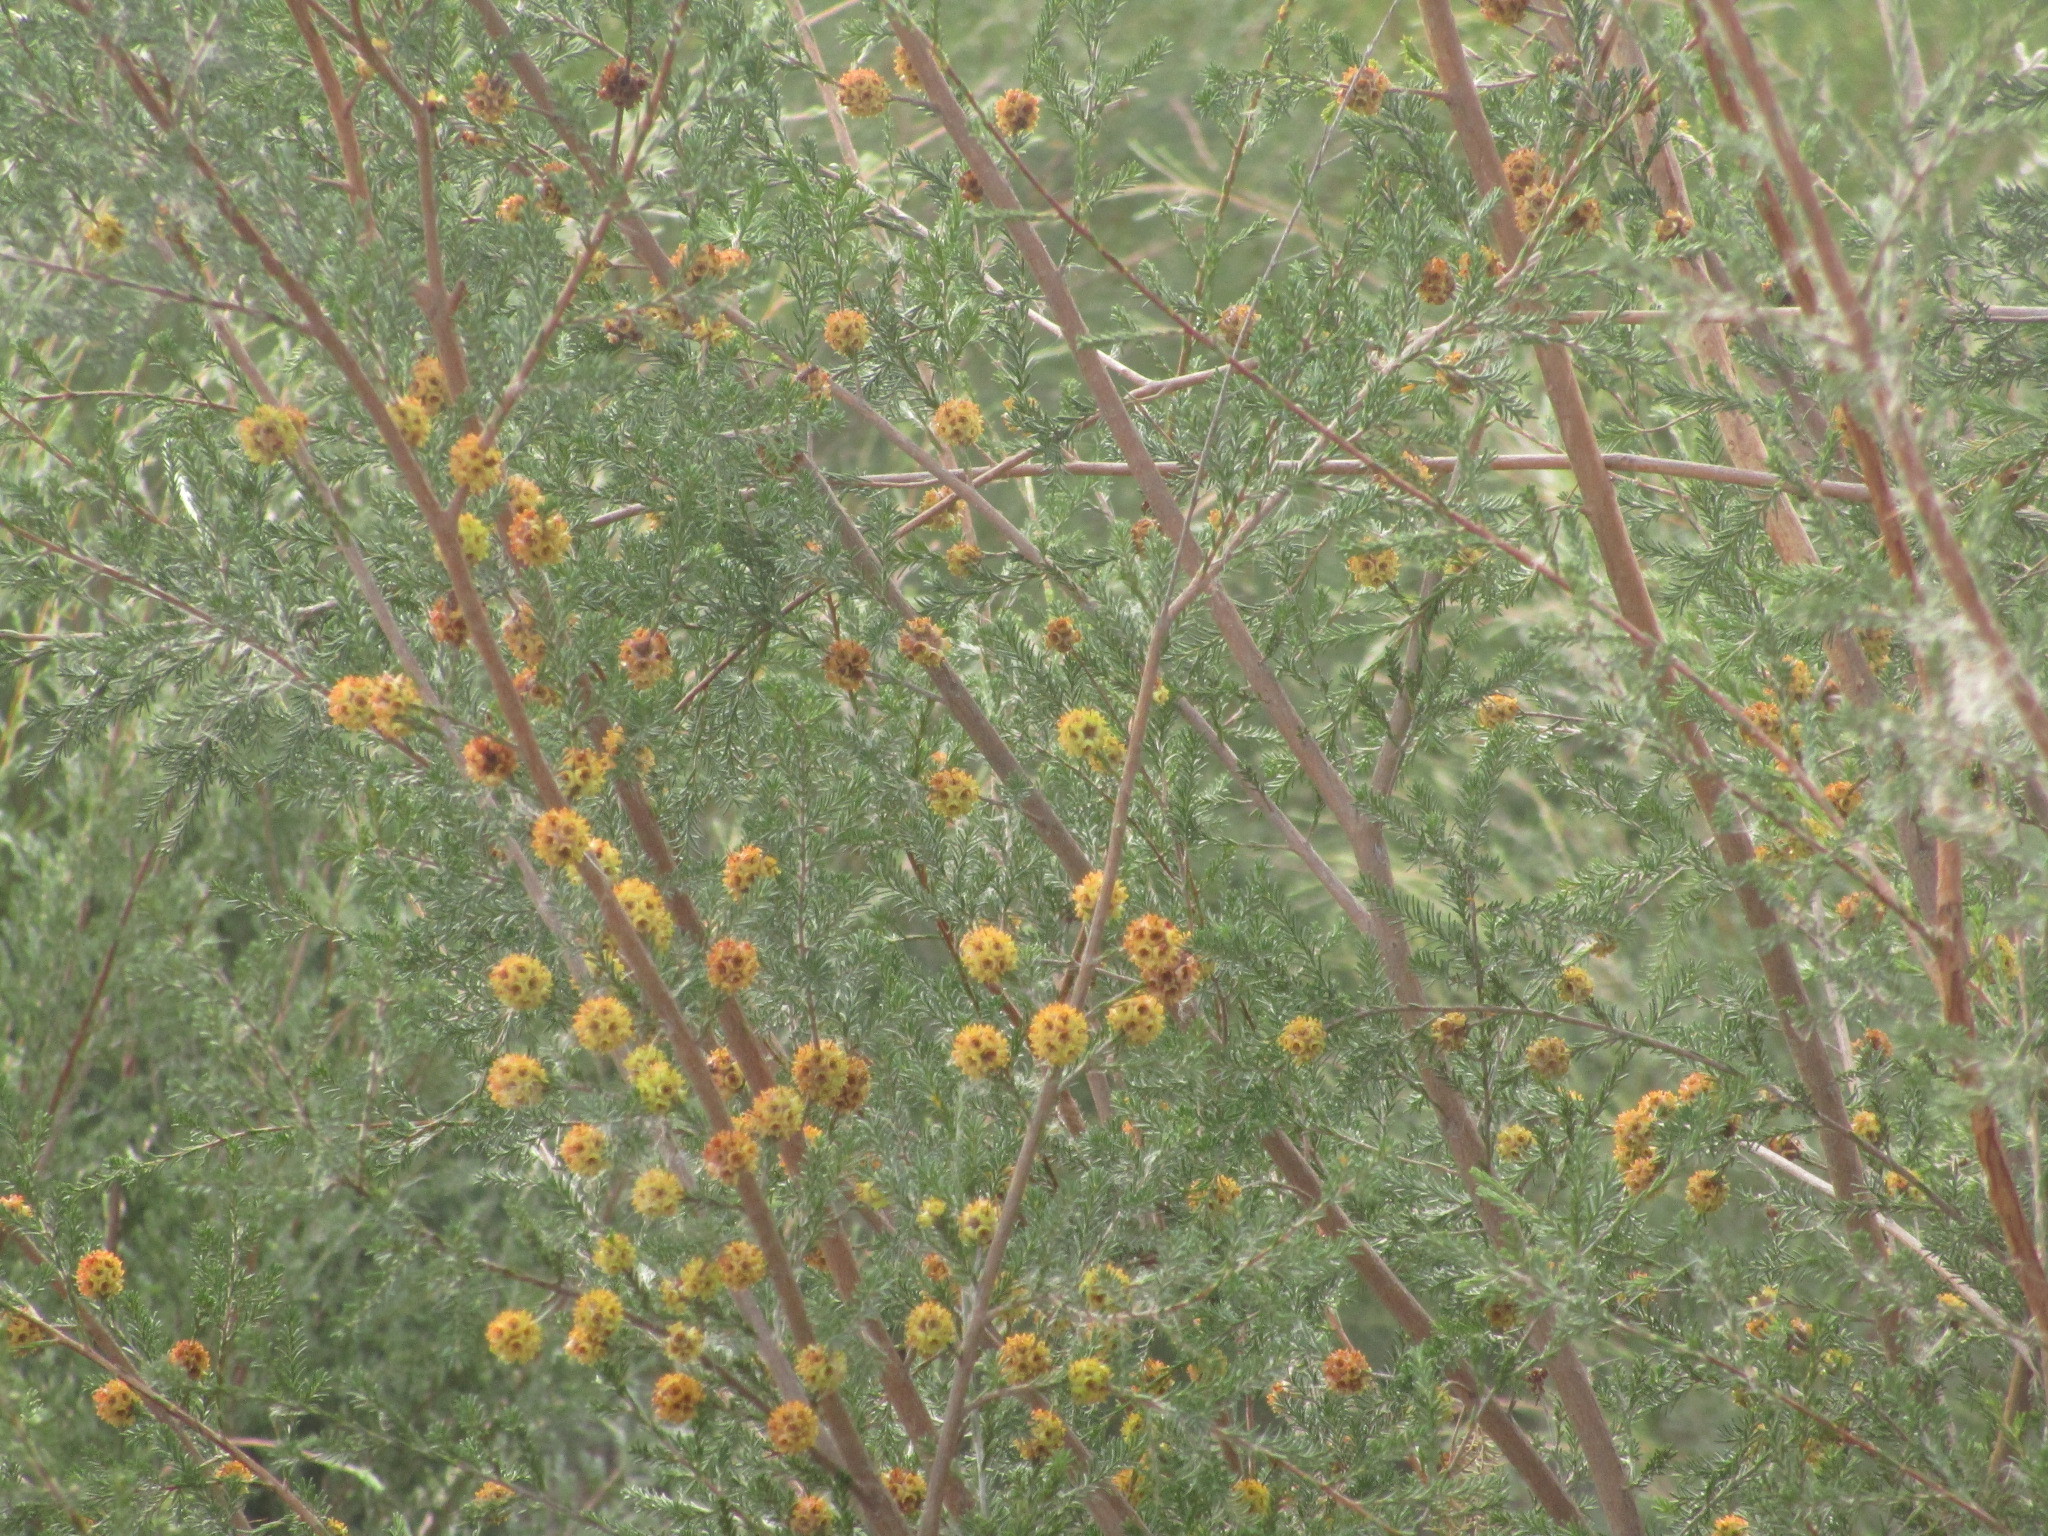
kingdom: Plantae
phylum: Tracheophyta
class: Magnoliopsida
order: Myrtales
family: Myrtaceae
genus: Kunzea
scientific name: Kunzea glabrescens
